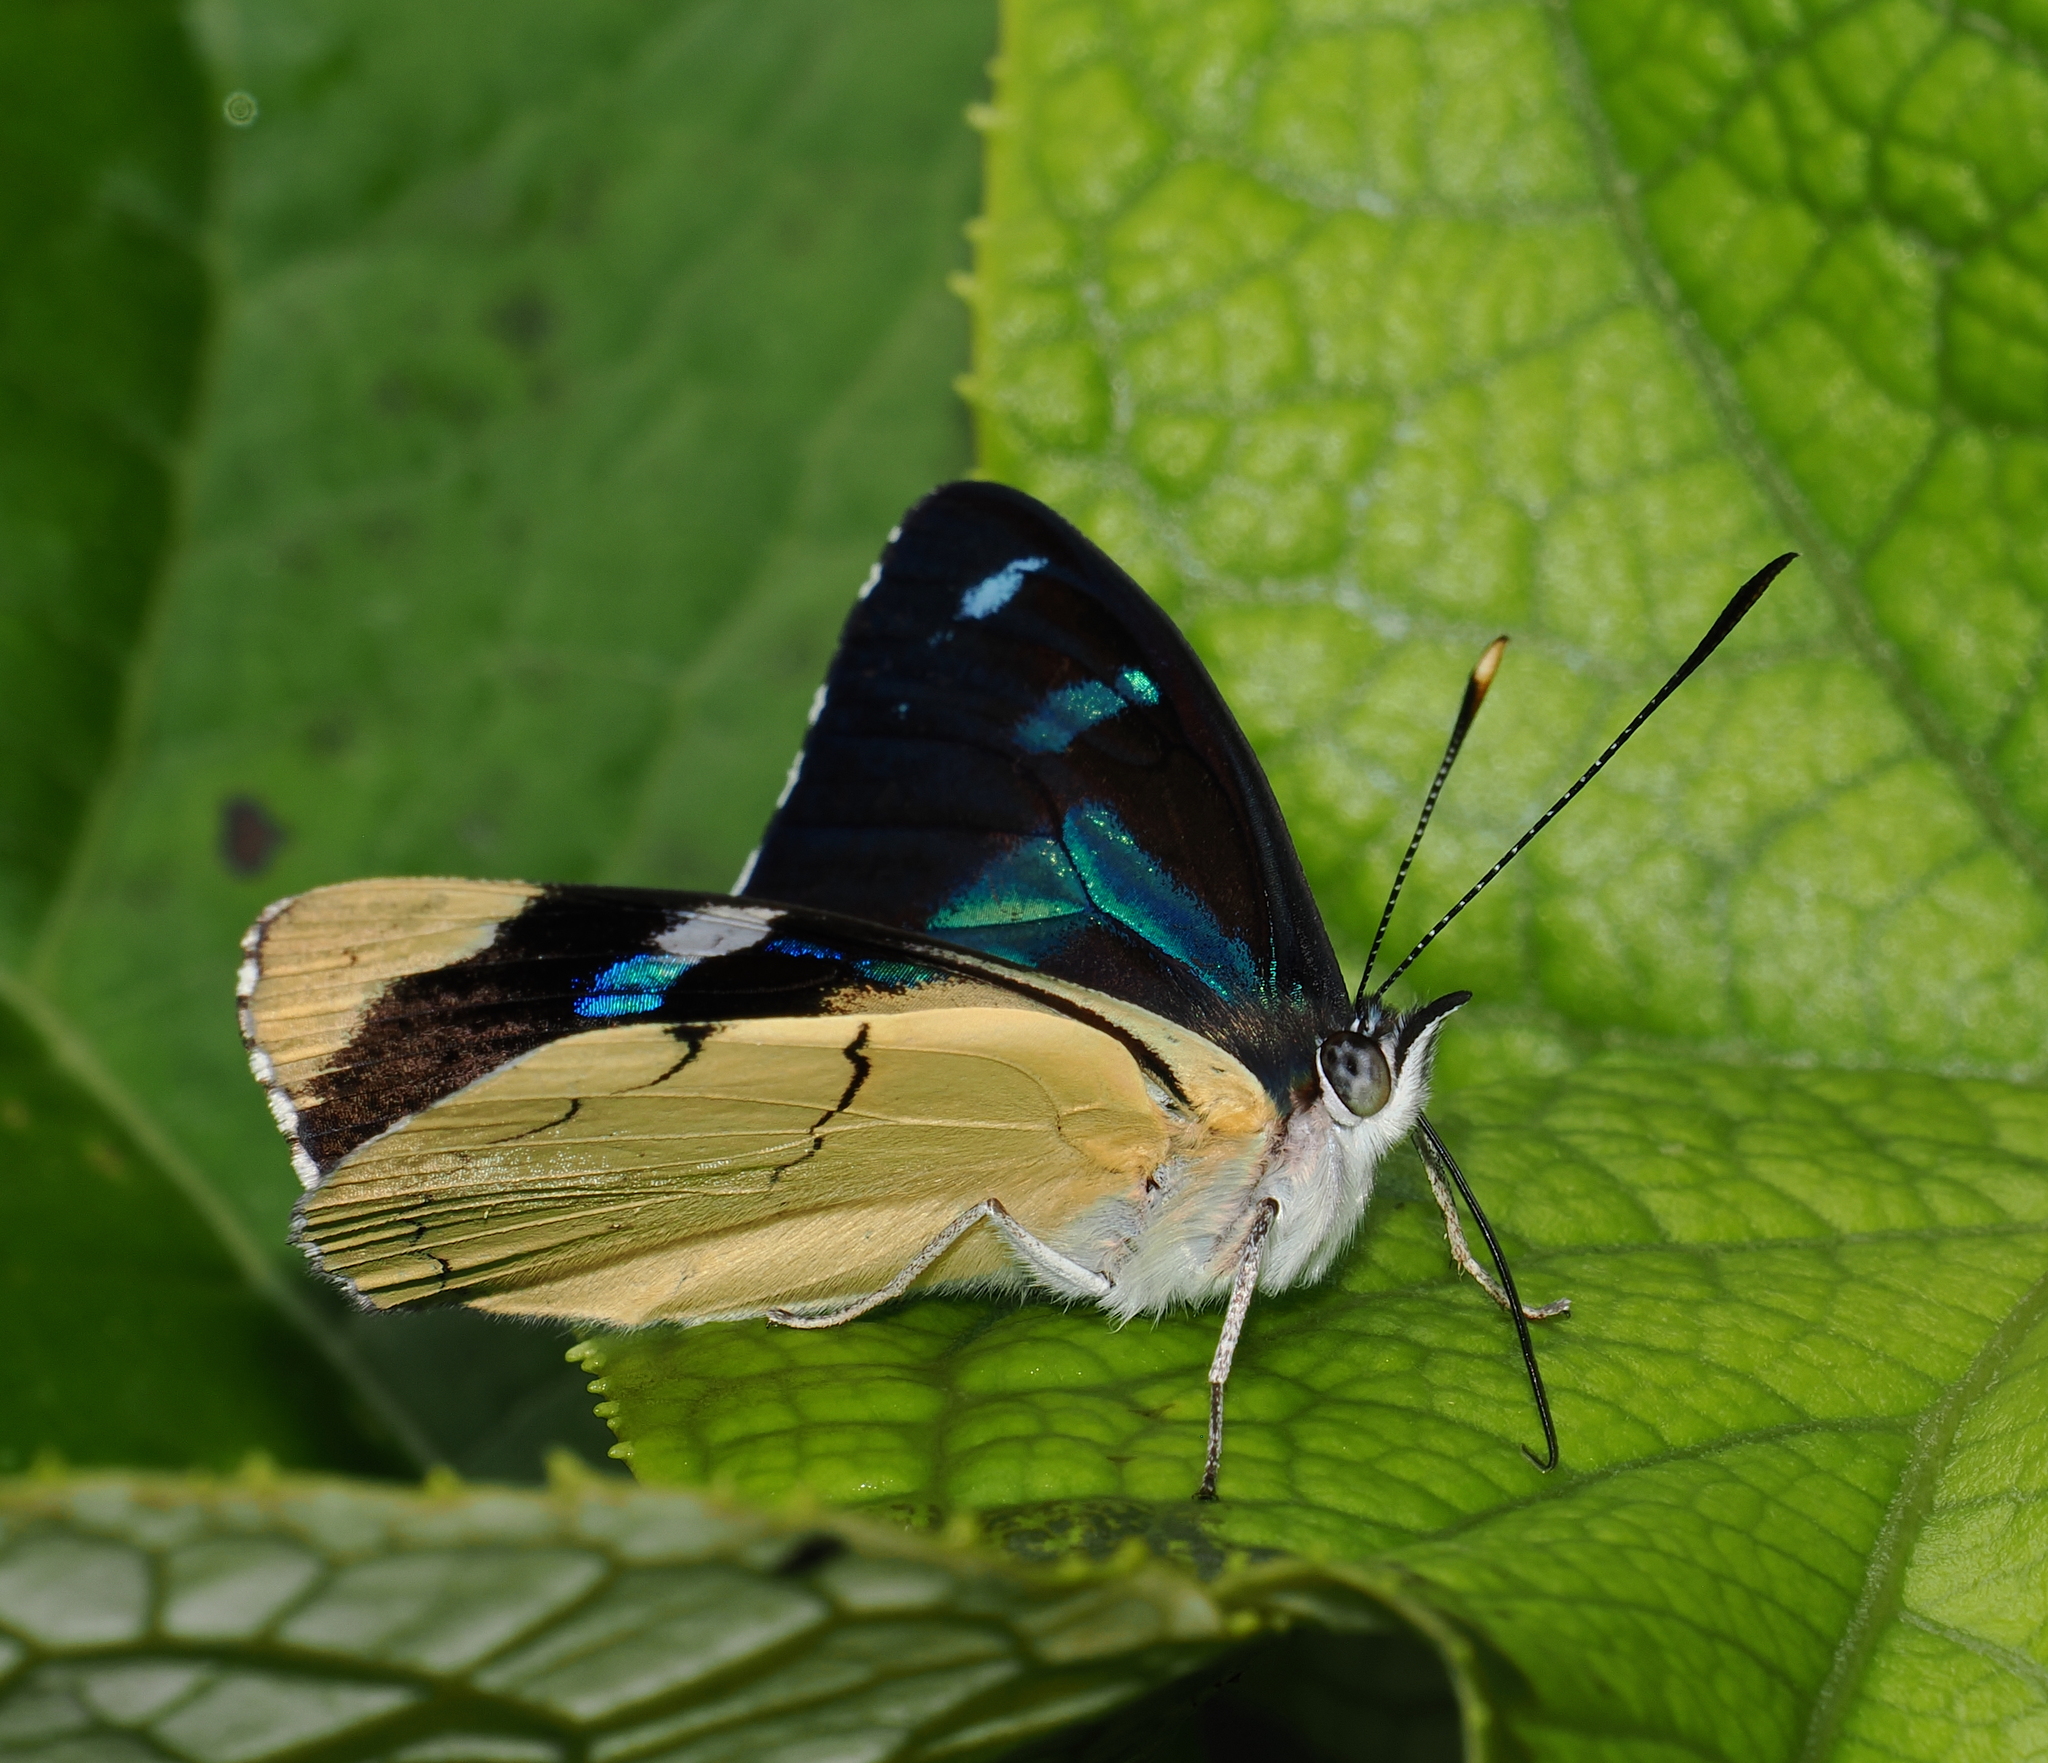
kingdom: Animalia
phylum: Arthropoda
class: Insecta
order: Lepidoptera
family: Nymphalidae
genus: Perisama
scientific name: Perisama tryphena
